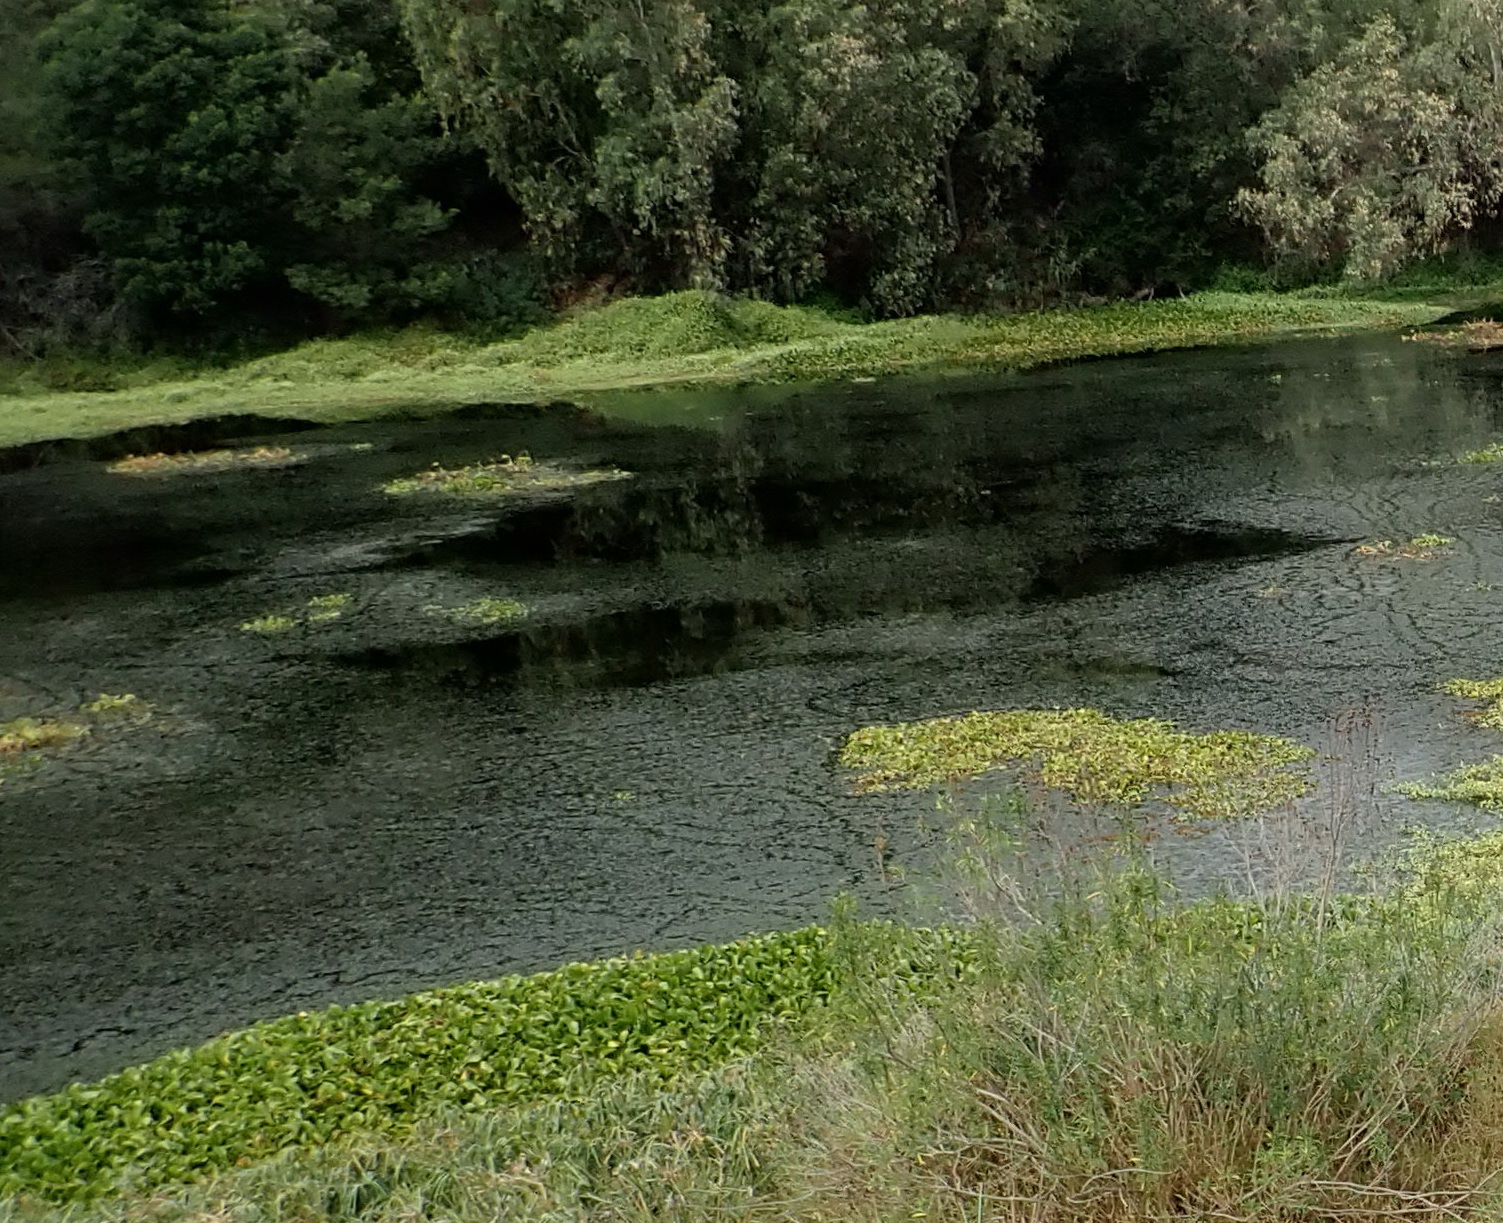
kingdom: Plantae
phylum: Tracheophyta
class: Liliopsida
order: Commelinales
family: Pontederiaceae
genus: Pontederia
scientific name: Pontederia crassipes
